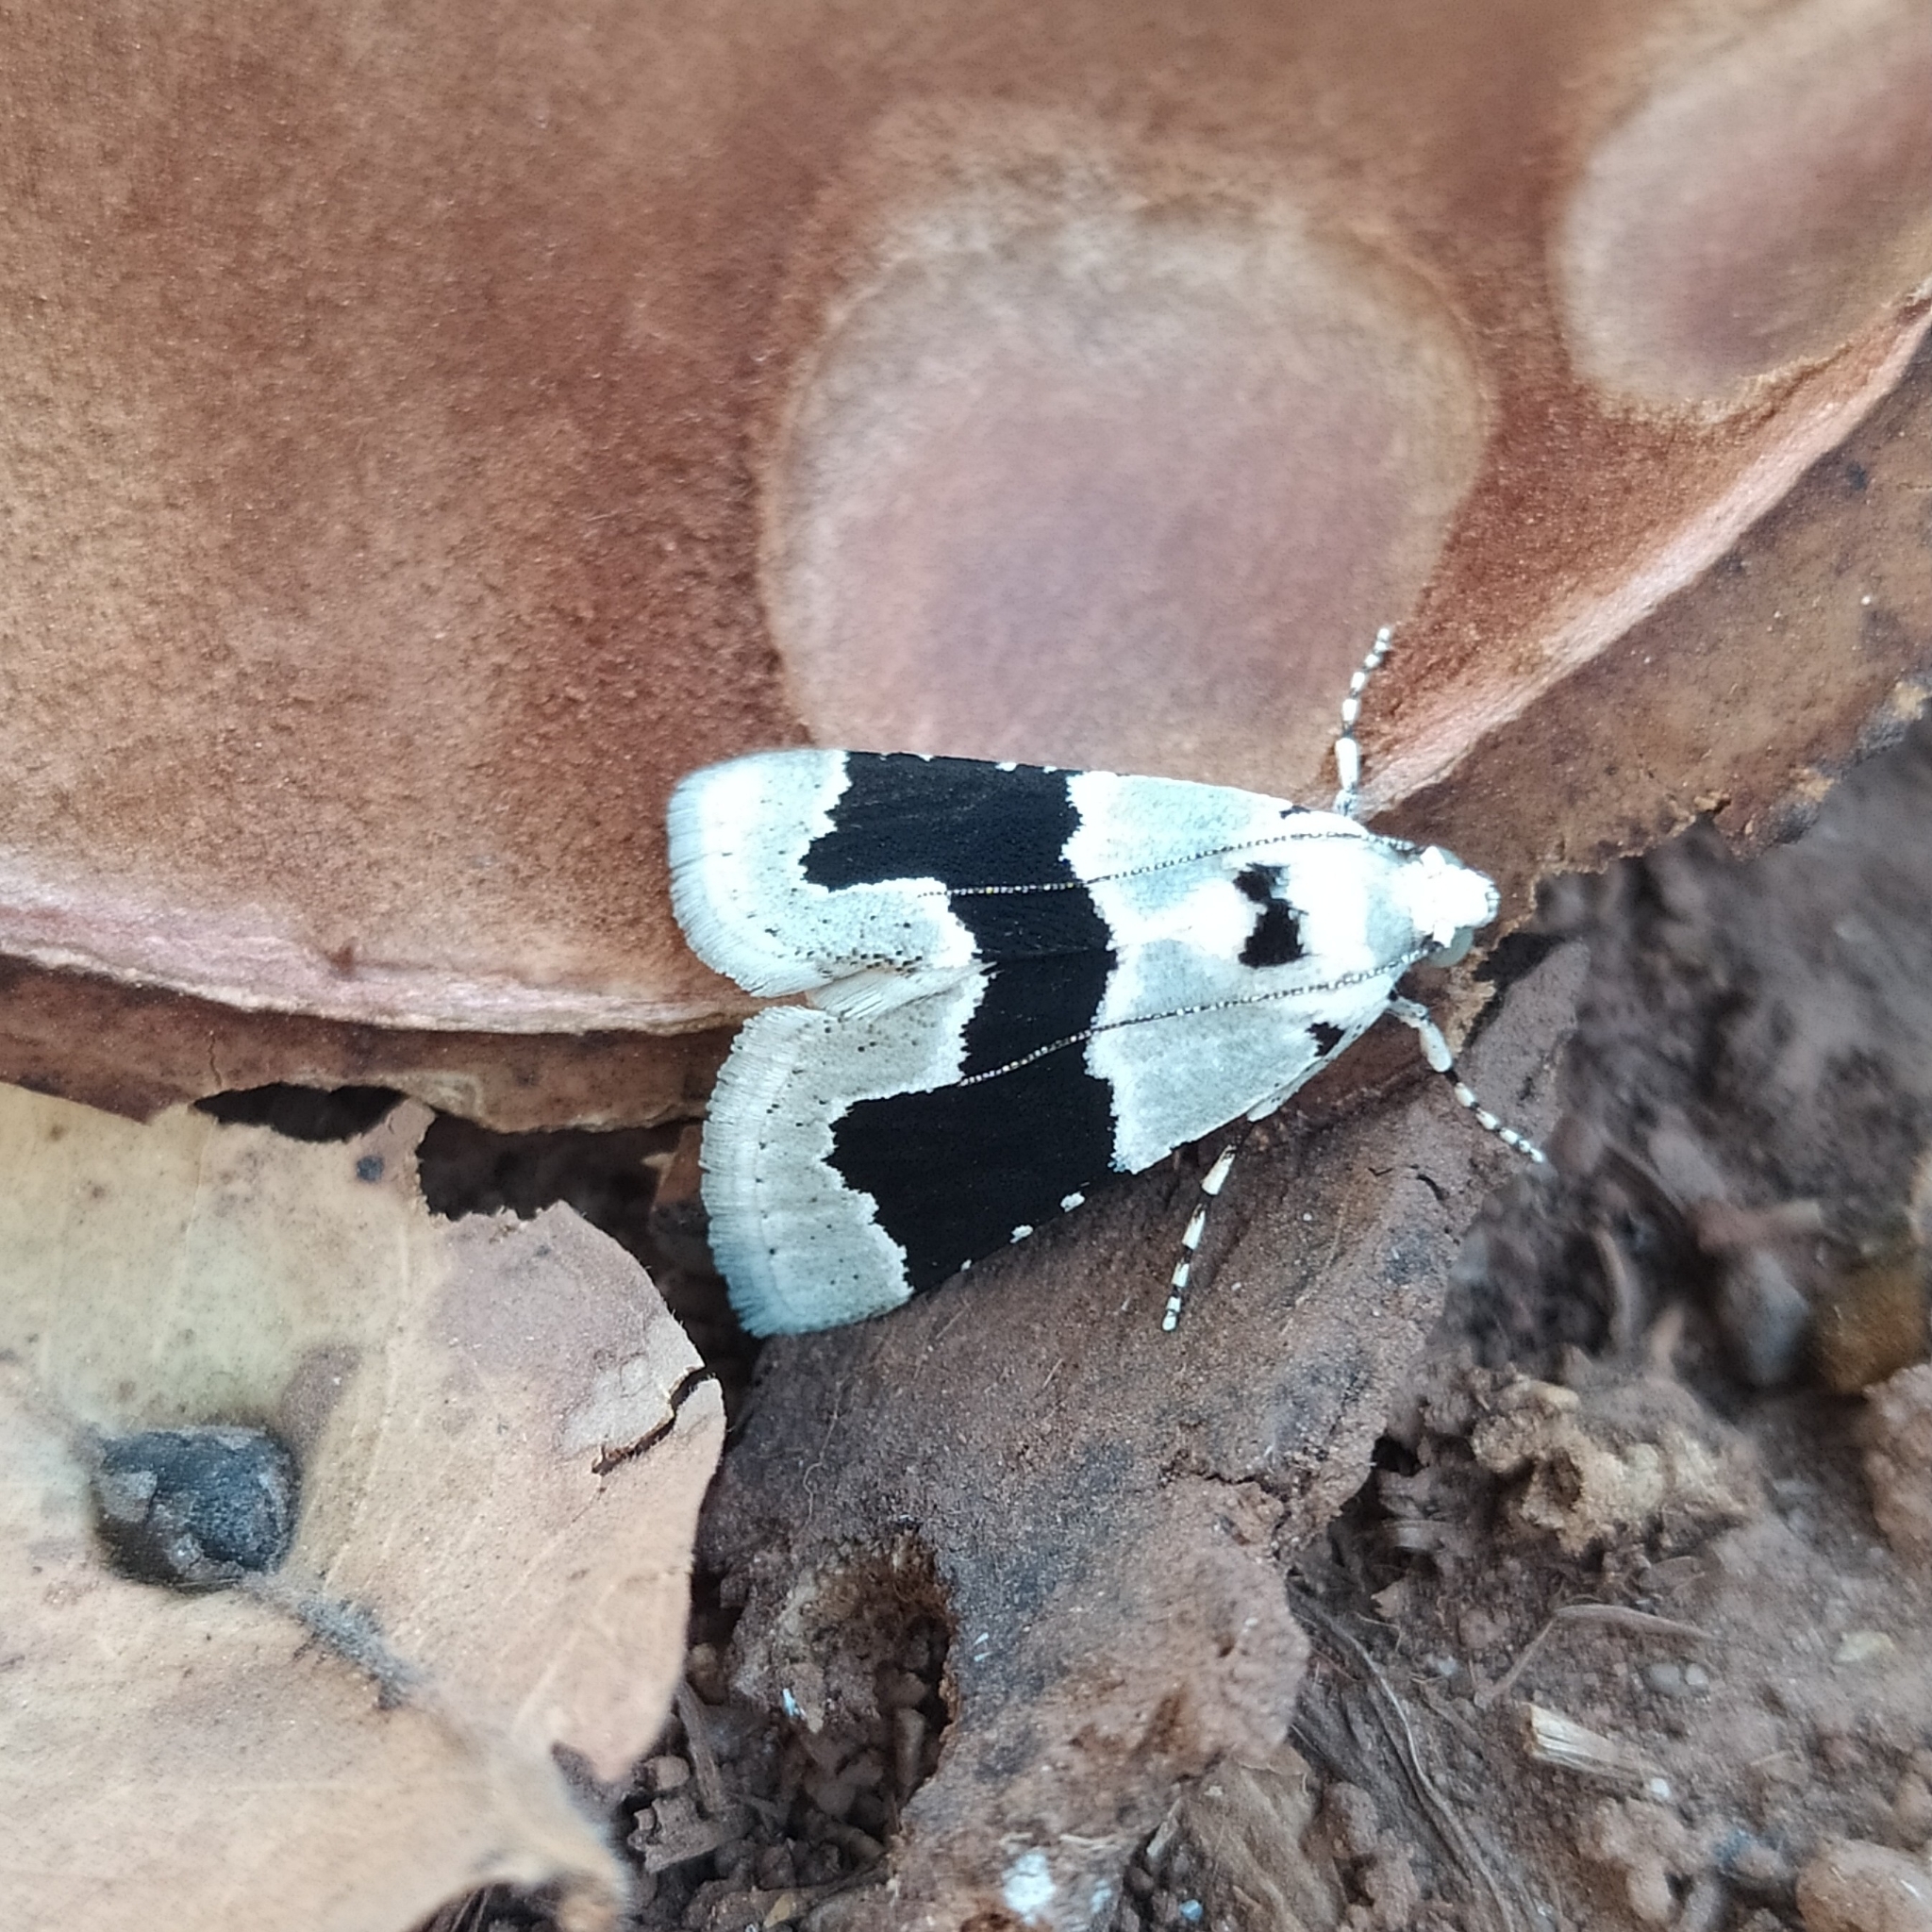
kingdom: Animalia
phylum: Arthropoda
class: Insecta
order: Lepidoptera
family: Pyralidae
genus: Stemmatophora
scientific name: Stemmatophora chloralis
